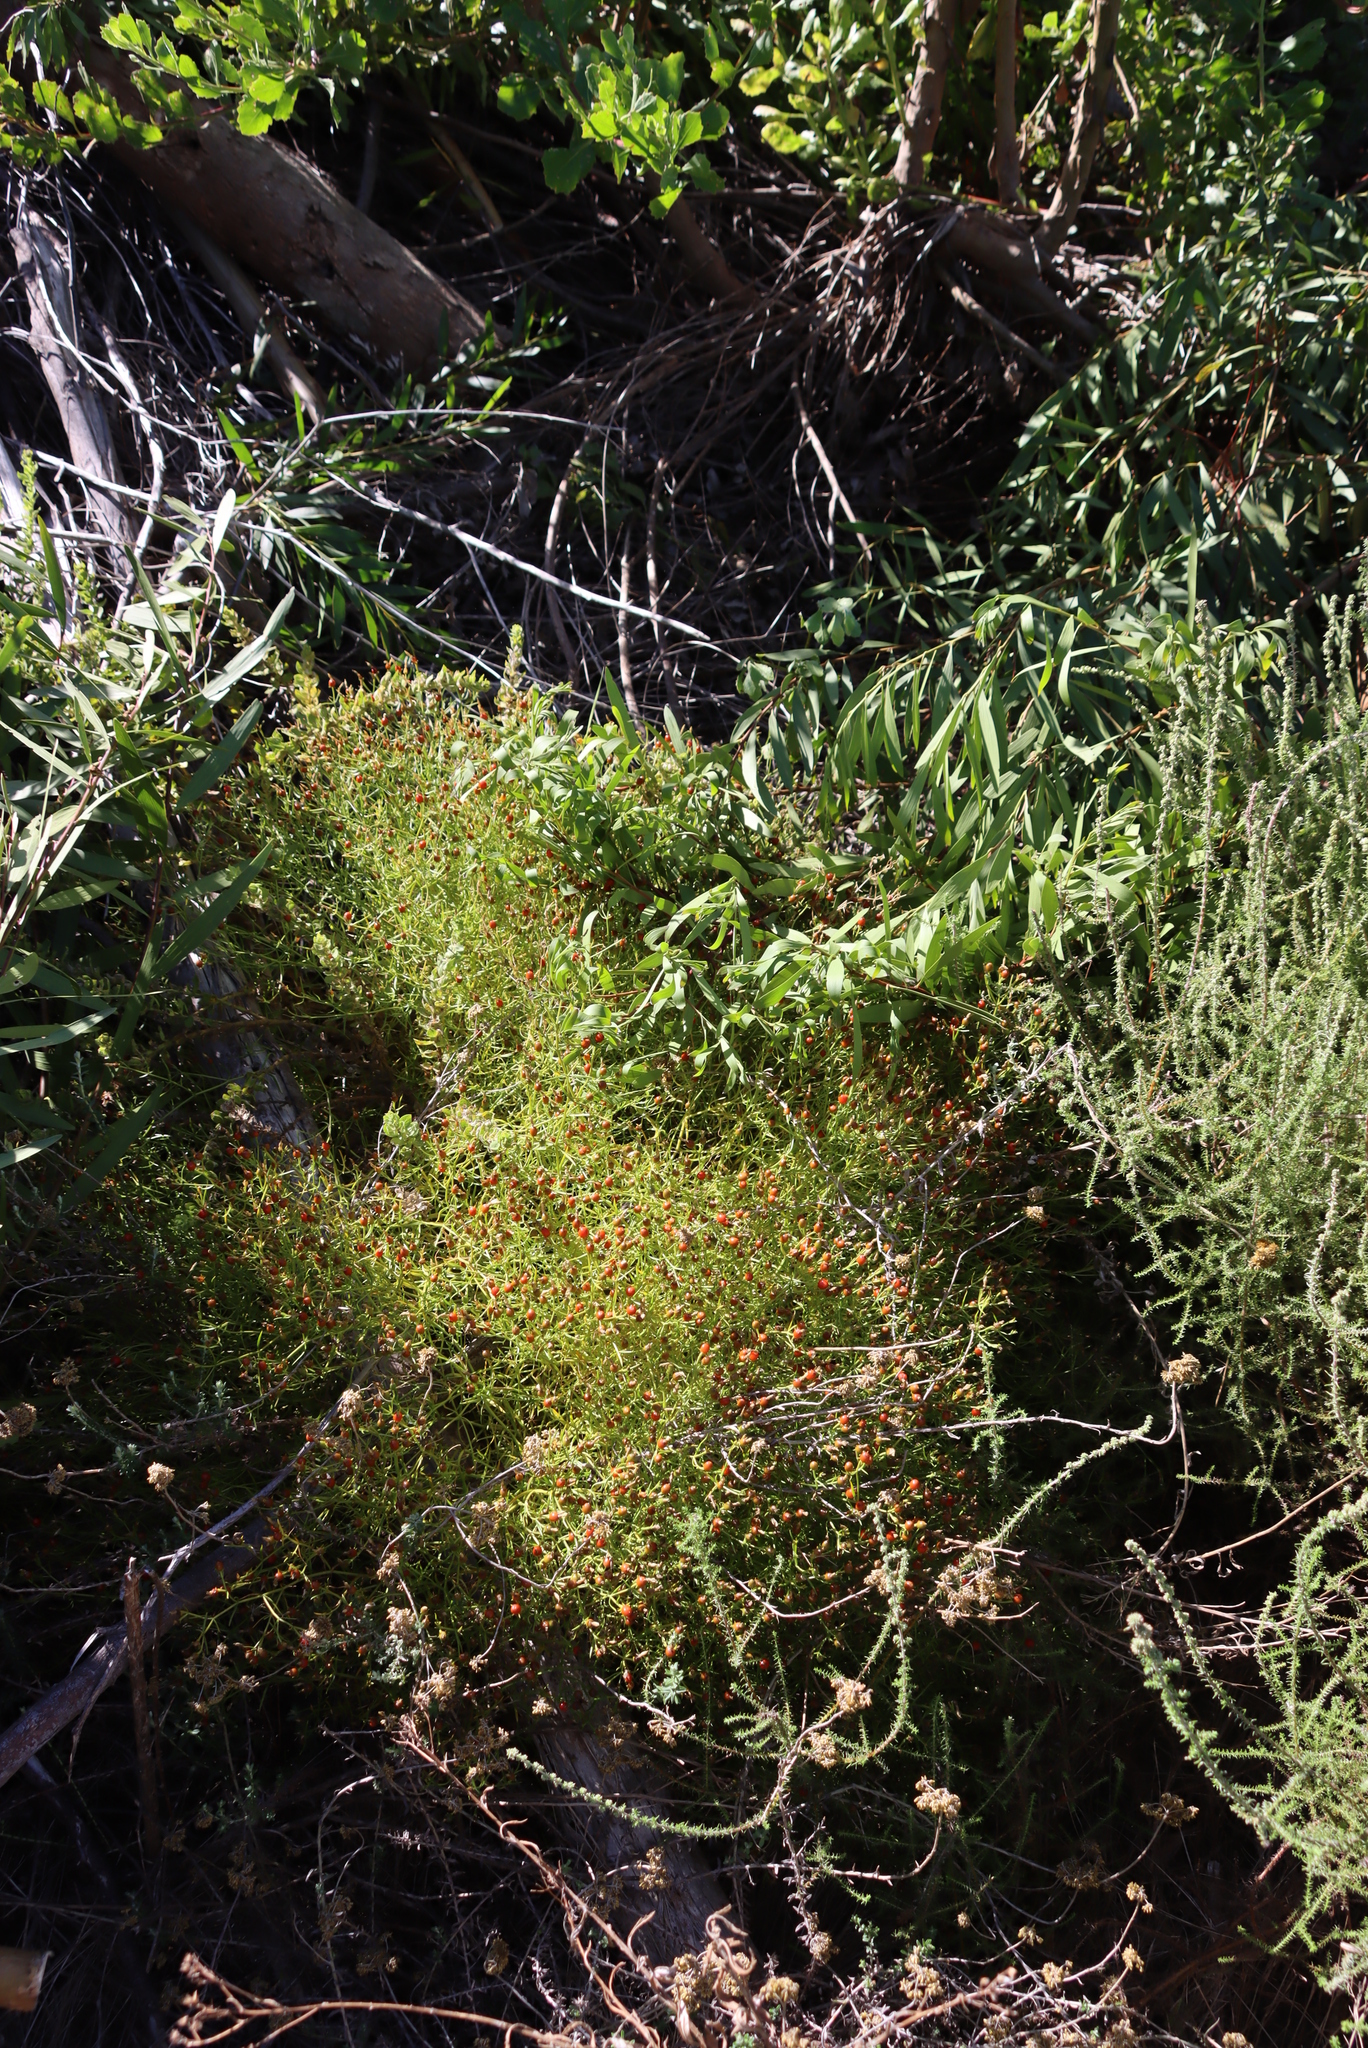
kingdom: Plantae
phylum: Tracheophyta
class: Magnoliopsida
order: Gentianales
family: Gentianaceae
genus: Chironia
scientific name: Chironia baccifera
